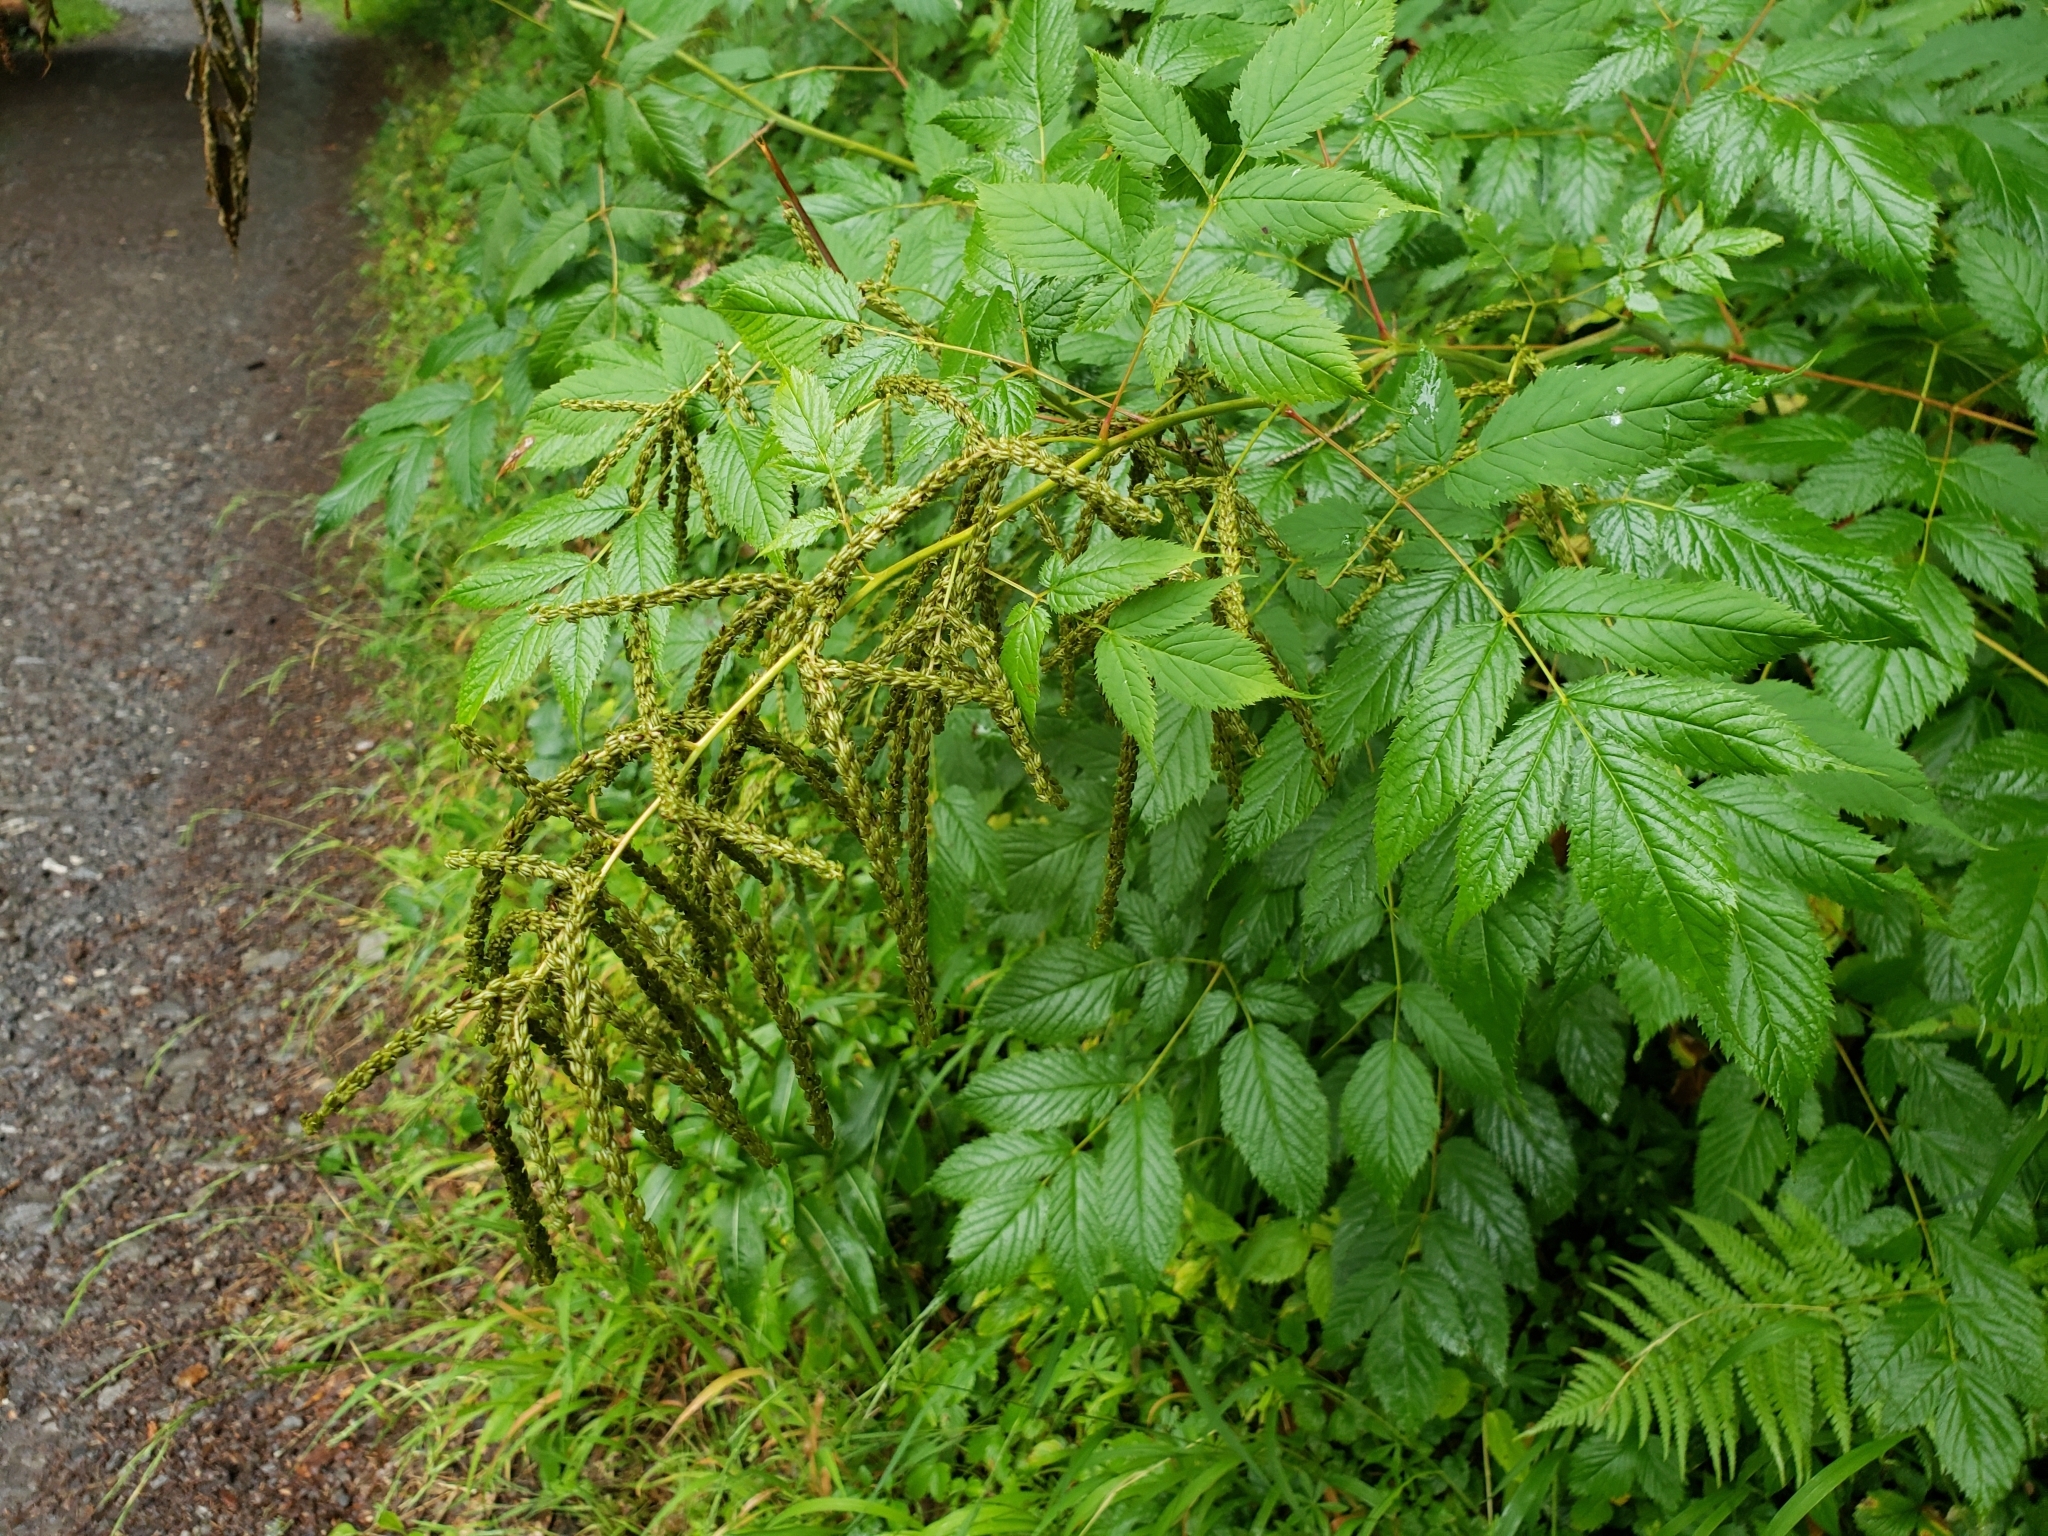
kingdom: Plantae
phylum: Tracheophyta
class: Magnoliopsida
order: Rosales
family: Rosaceae
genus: Aruncus
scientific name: Aruncus dioicus
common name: Buck's-beard
